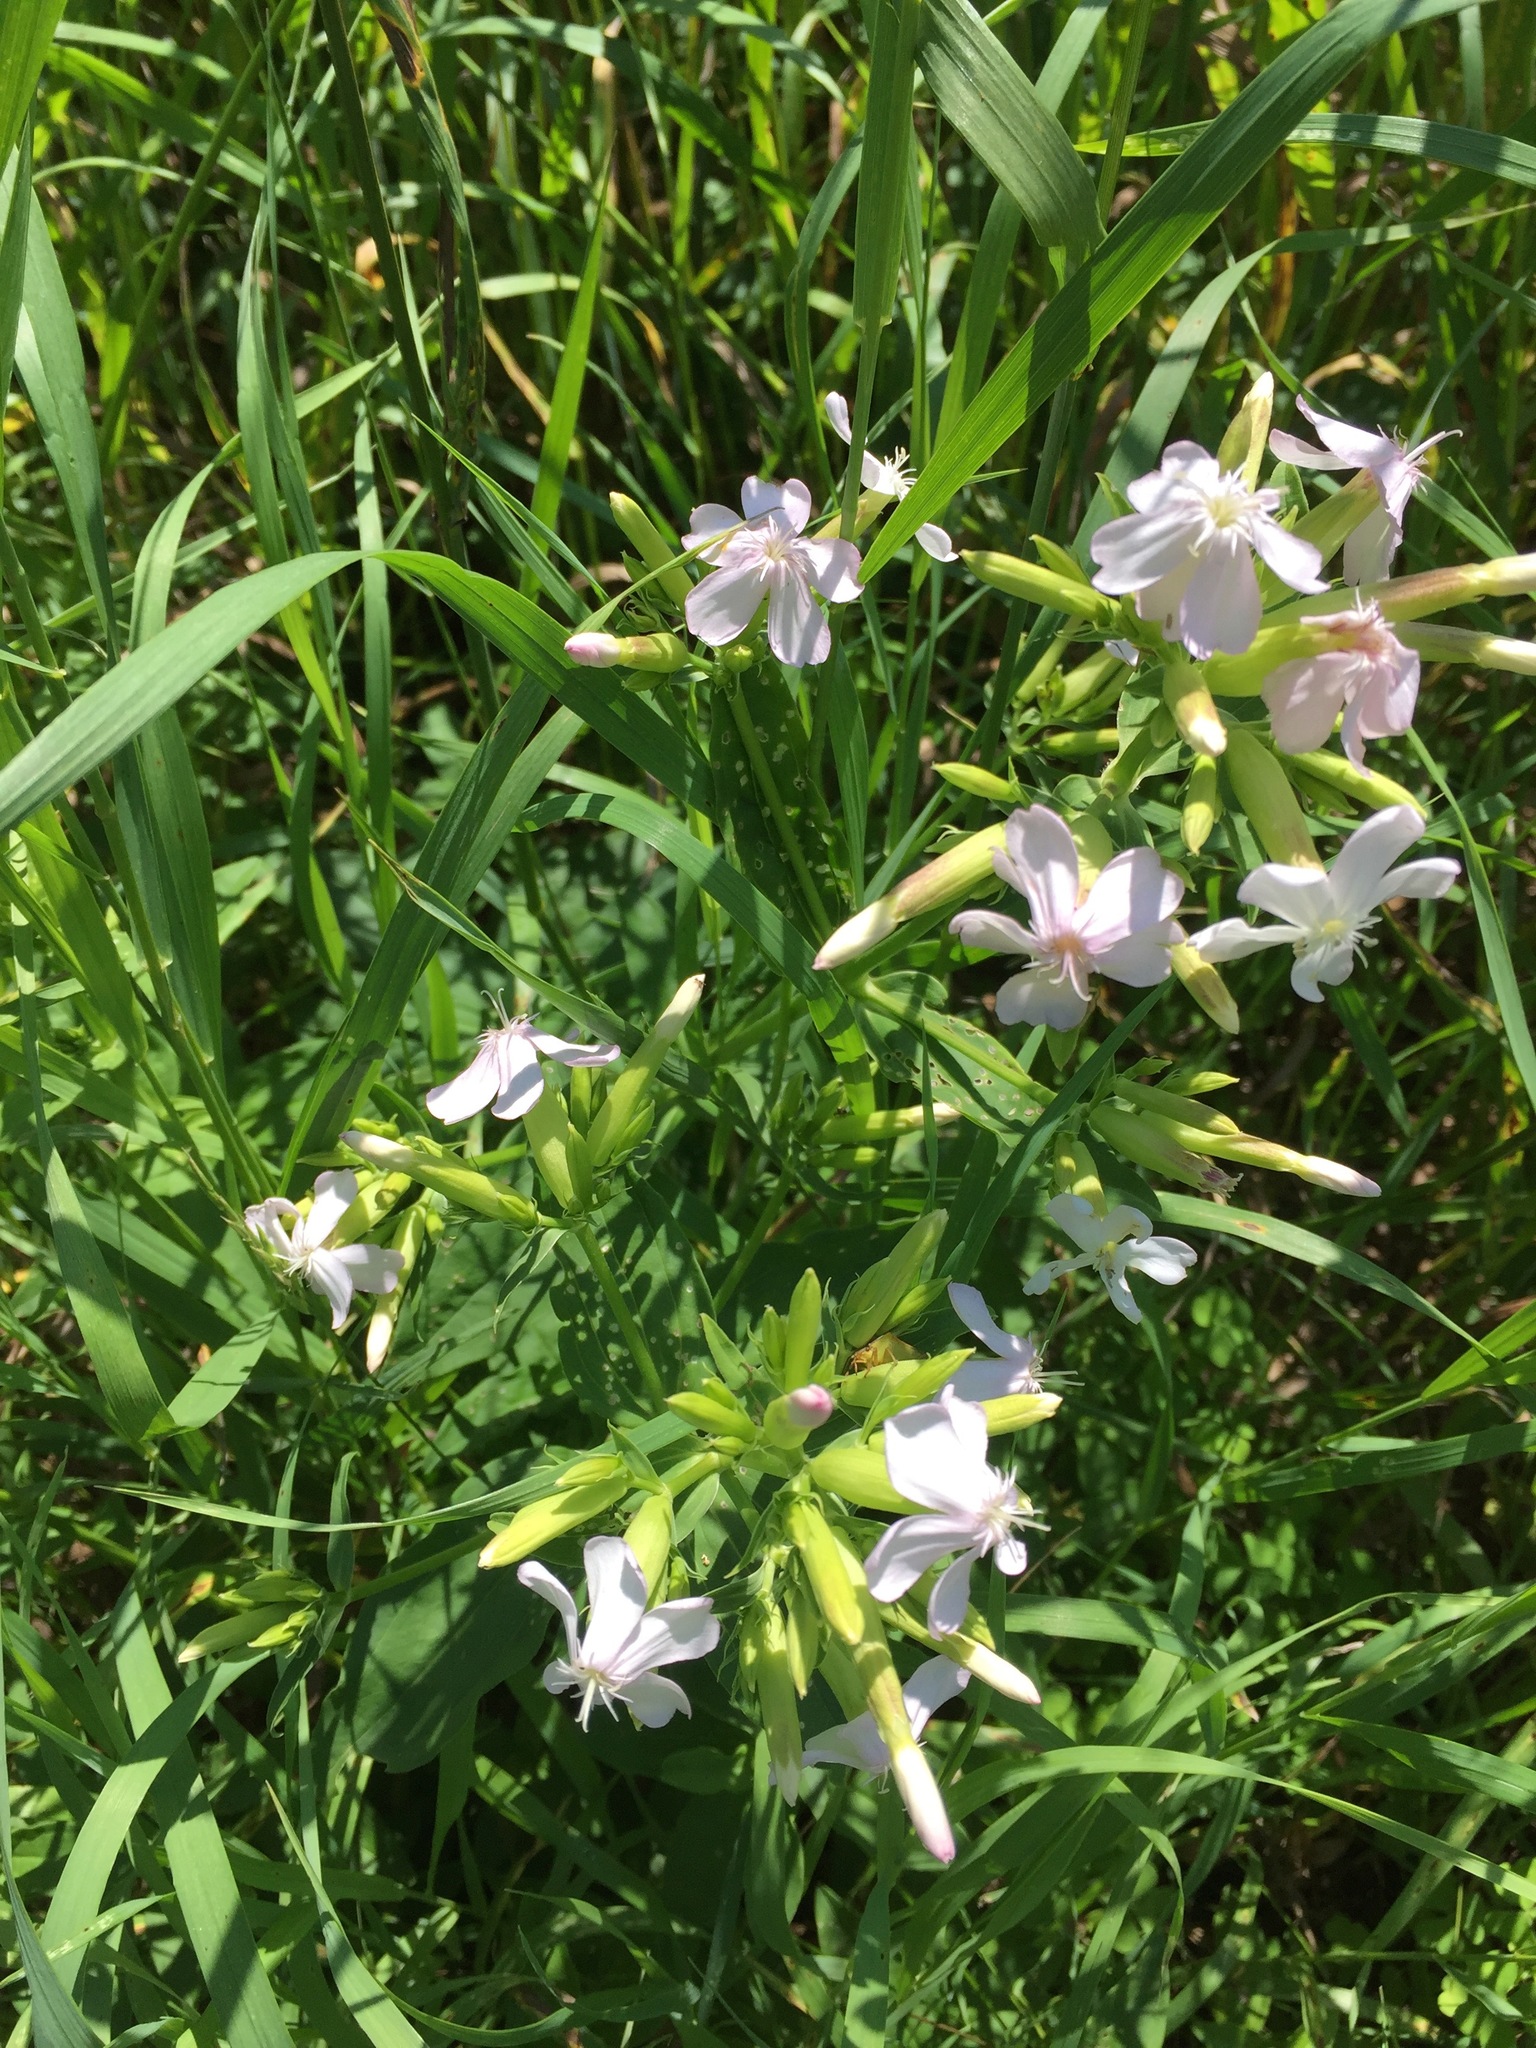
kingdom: Plantae
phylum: Tracheophyta
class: Magnoliopsida
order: Caryophyllales
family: Caryophyllaceae
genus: Saponaria
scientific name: Saponaria officinalis
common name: Soapwort
